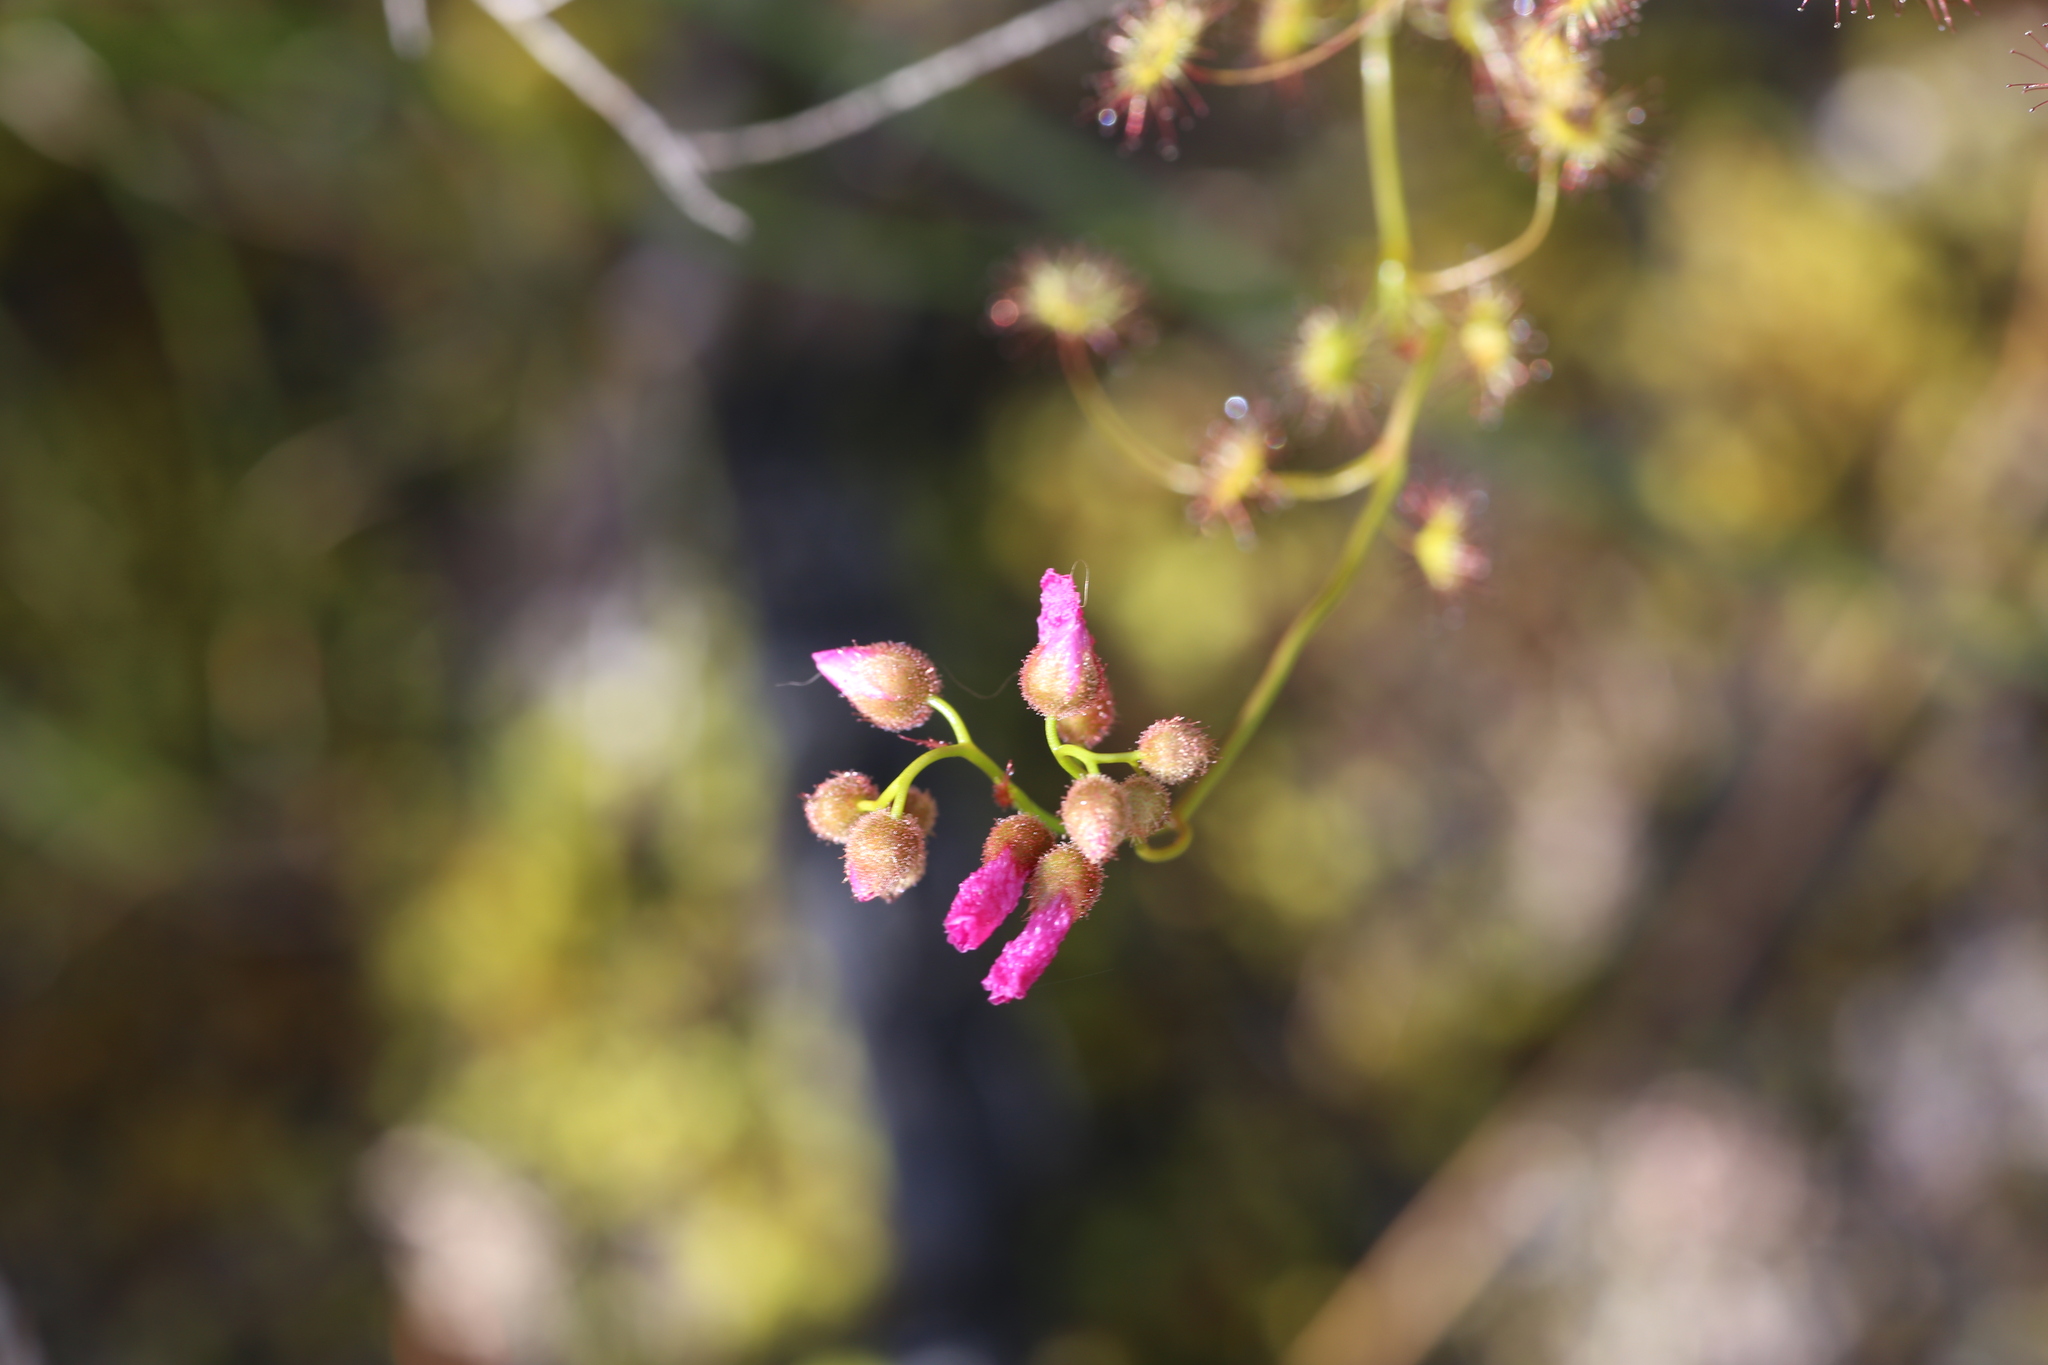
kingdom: Plantae
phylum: Tracheophyta
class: Magnoliopsida
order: Caryophyllales
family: Droseraceae
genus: Drosera
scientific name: Drosera
